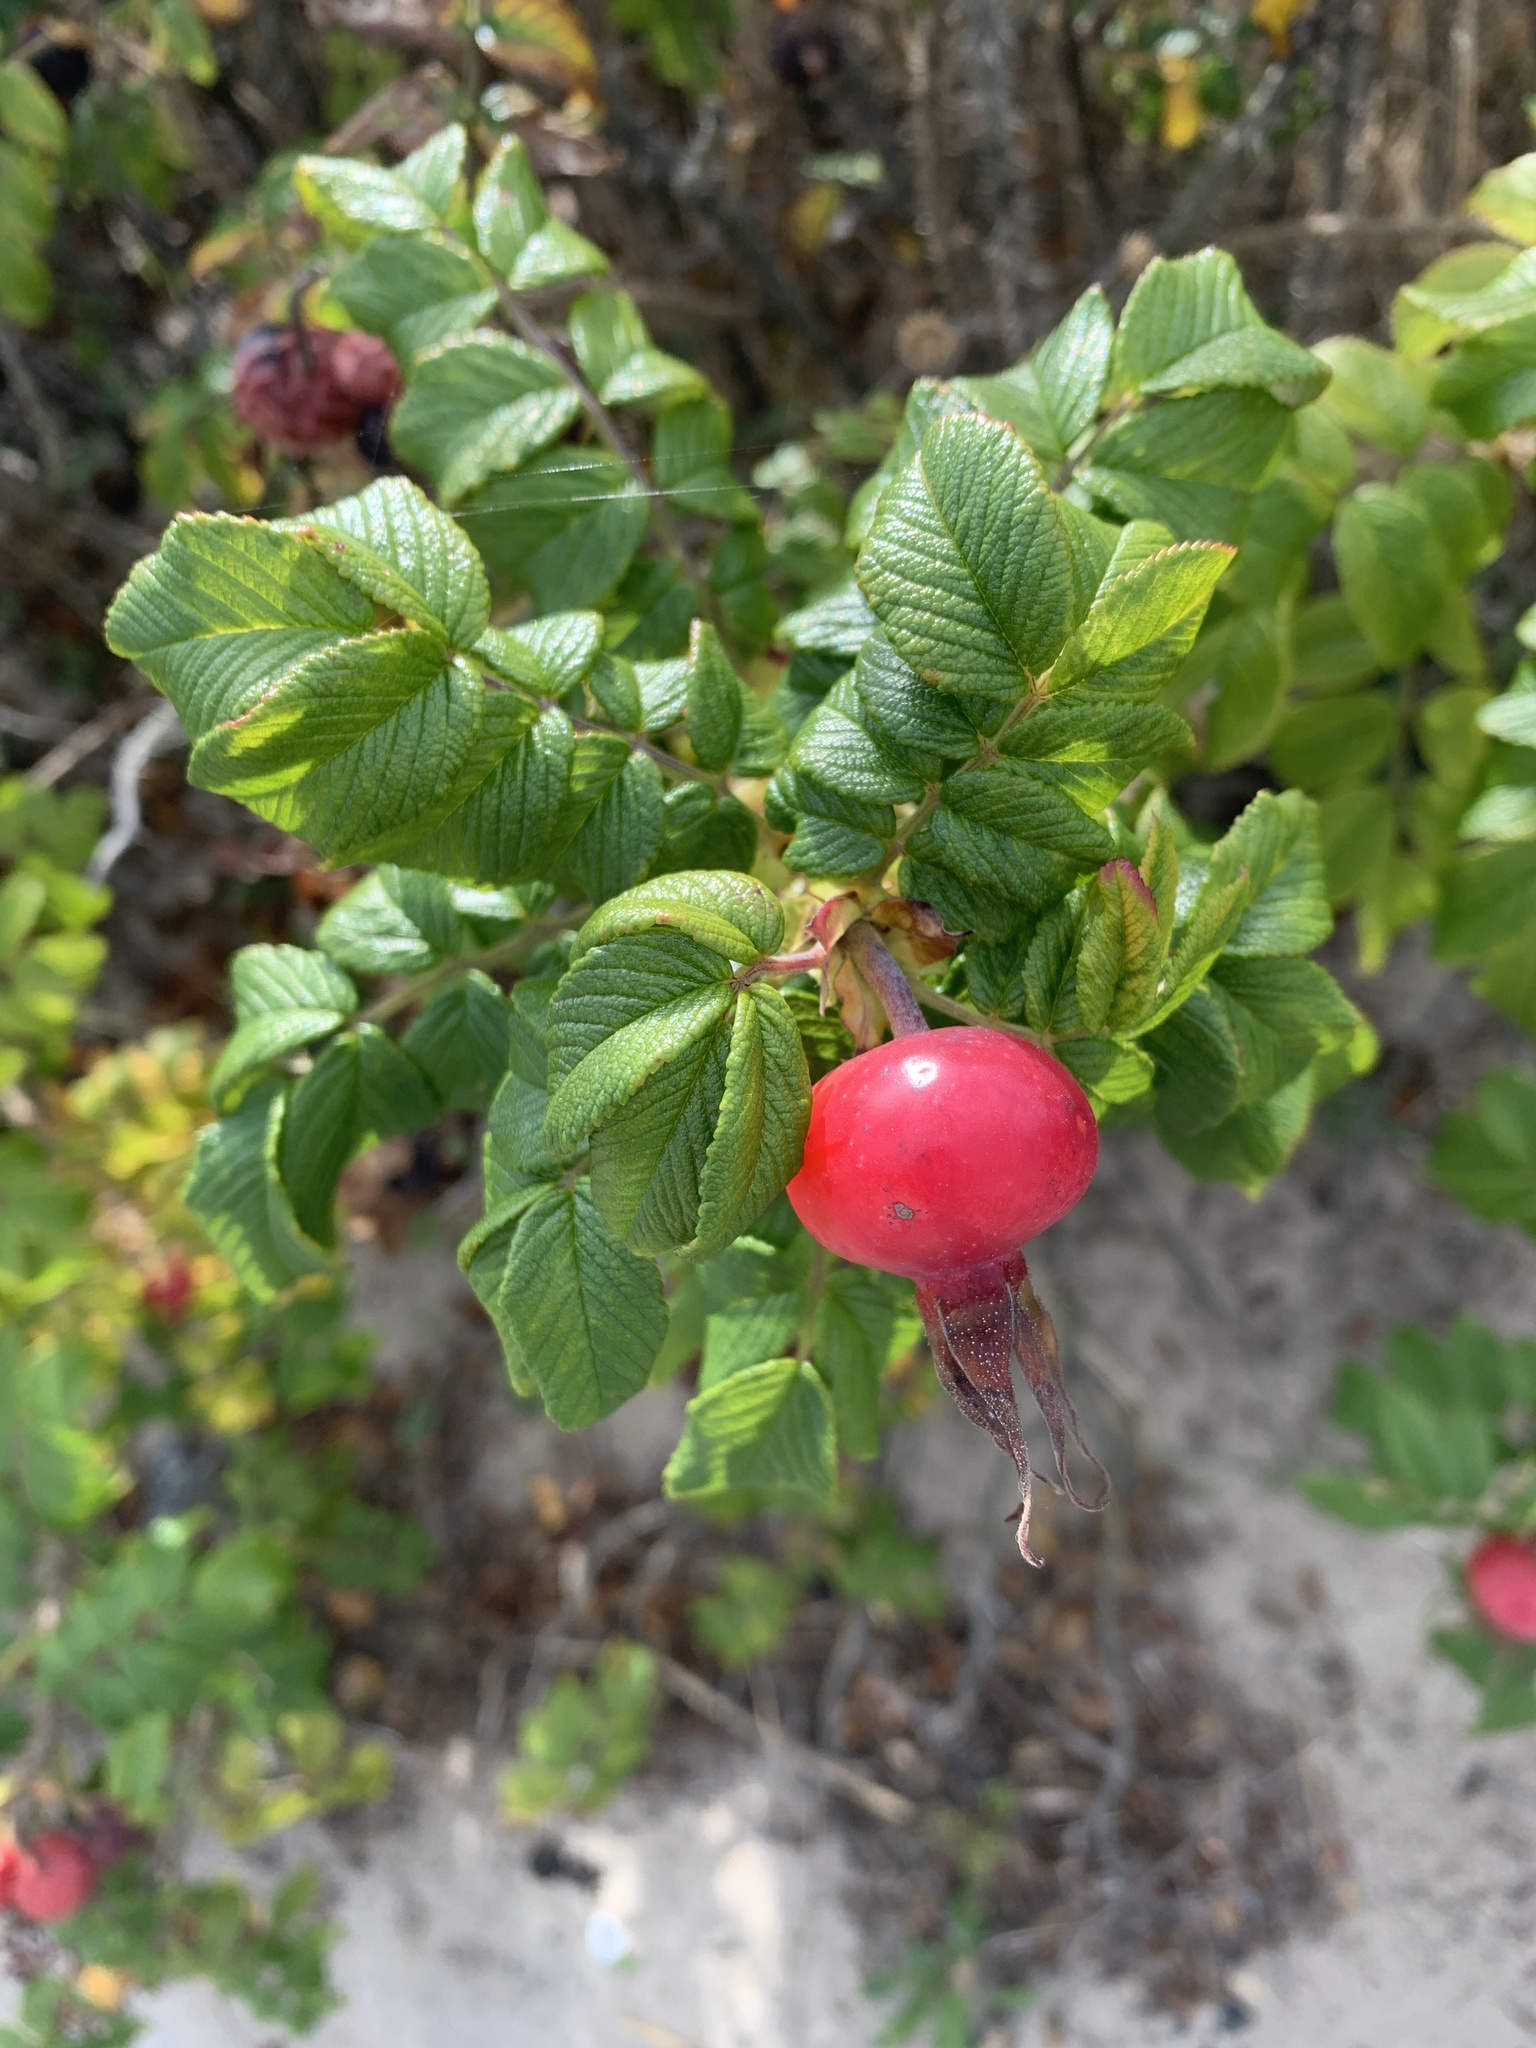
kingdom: Plantae
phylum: Tracheophyta
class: Magnoliopsida
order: Rosales
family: Rosaceae
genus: Rosa
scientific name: Rosa rugosa
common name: Japanese rose
